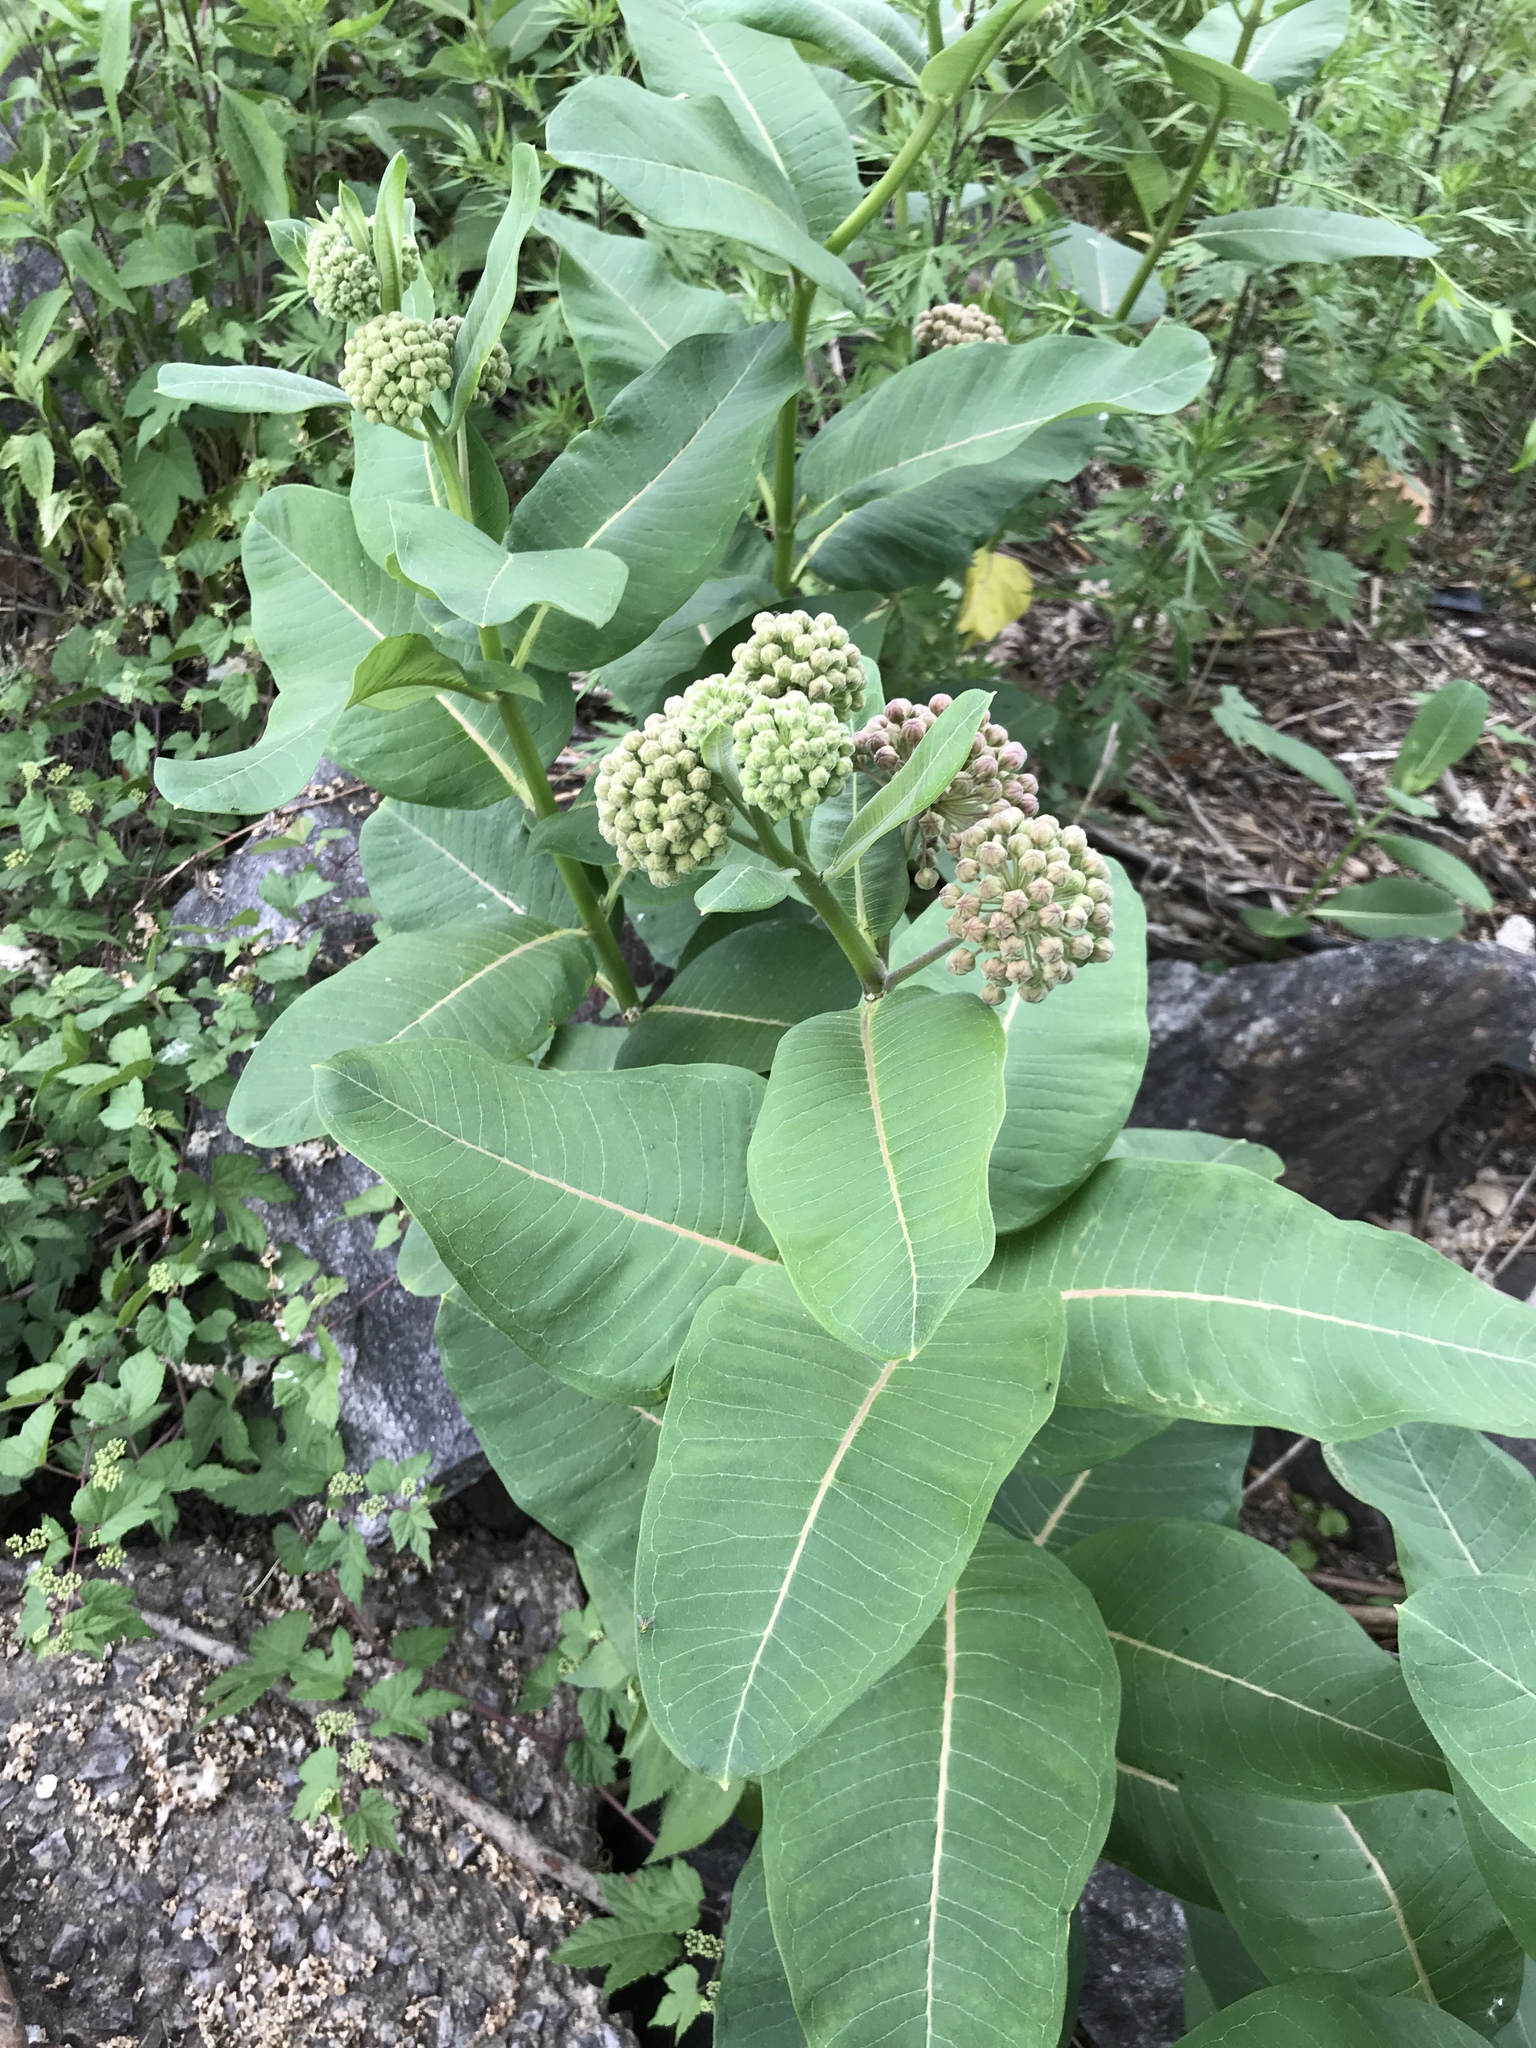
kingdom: Plantae
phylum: Tracheophyta
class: Magnoliopsida
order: Gentianales
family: Apocynaceae
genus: Asclepias
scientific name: Asclepias syriaca
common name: Common milkweed
